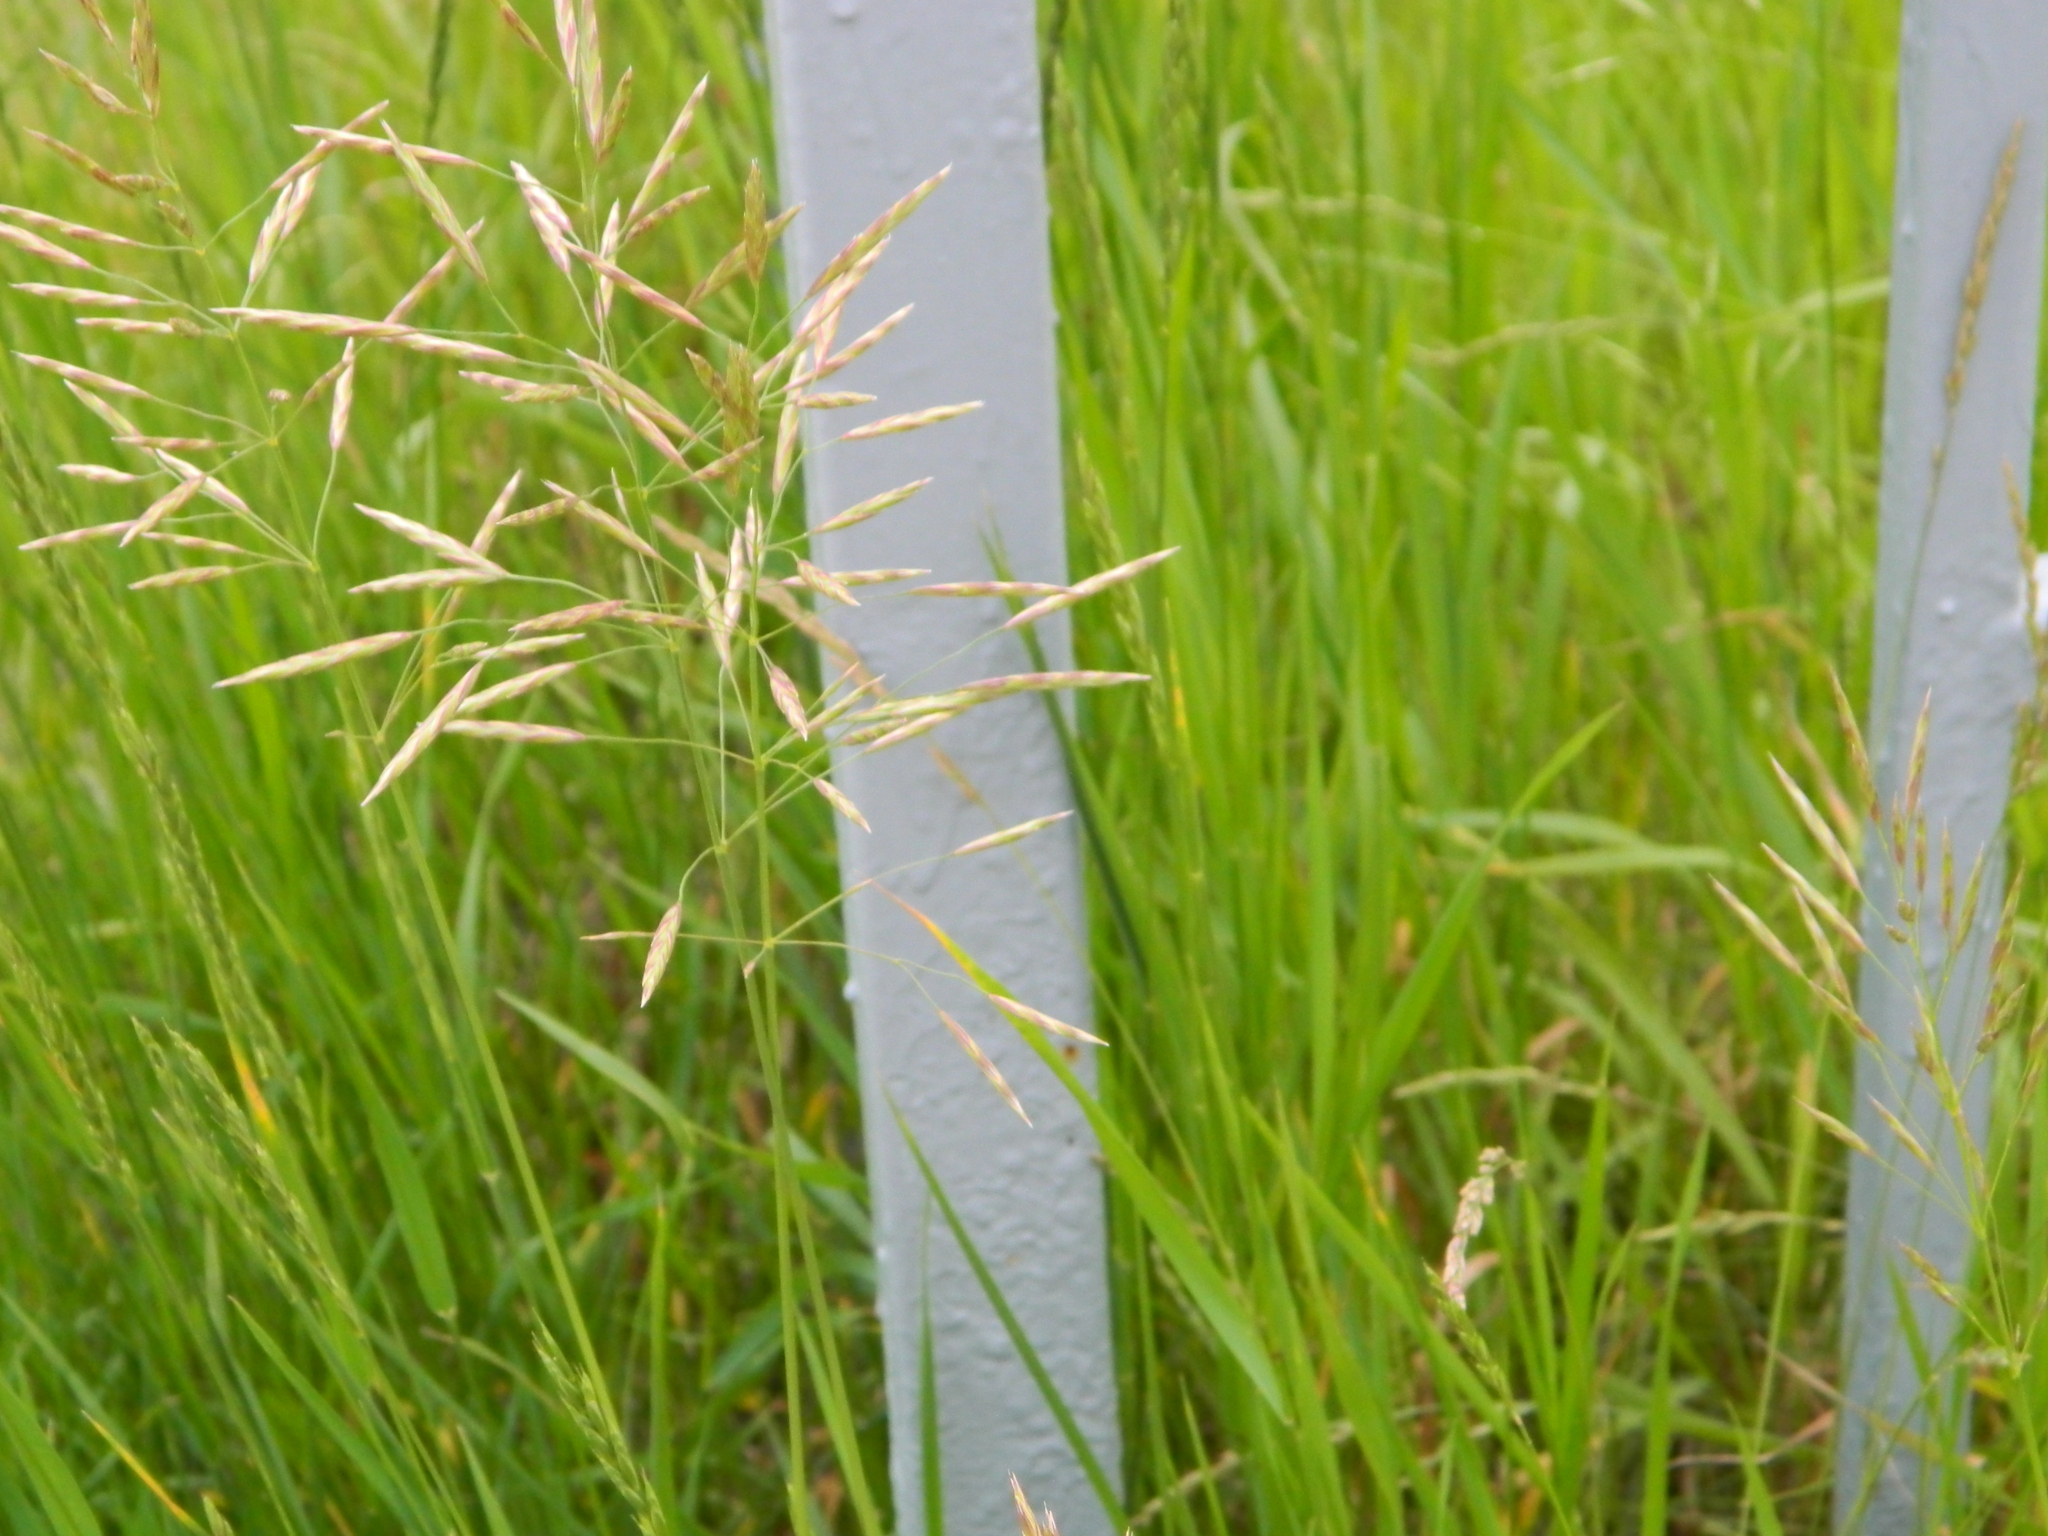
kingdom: Plantae
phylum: Tracheophyta
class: Liliopsida
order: Poales
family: Poaceae
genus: Bromus
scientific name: Bromus inermis
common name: Smooth brome
